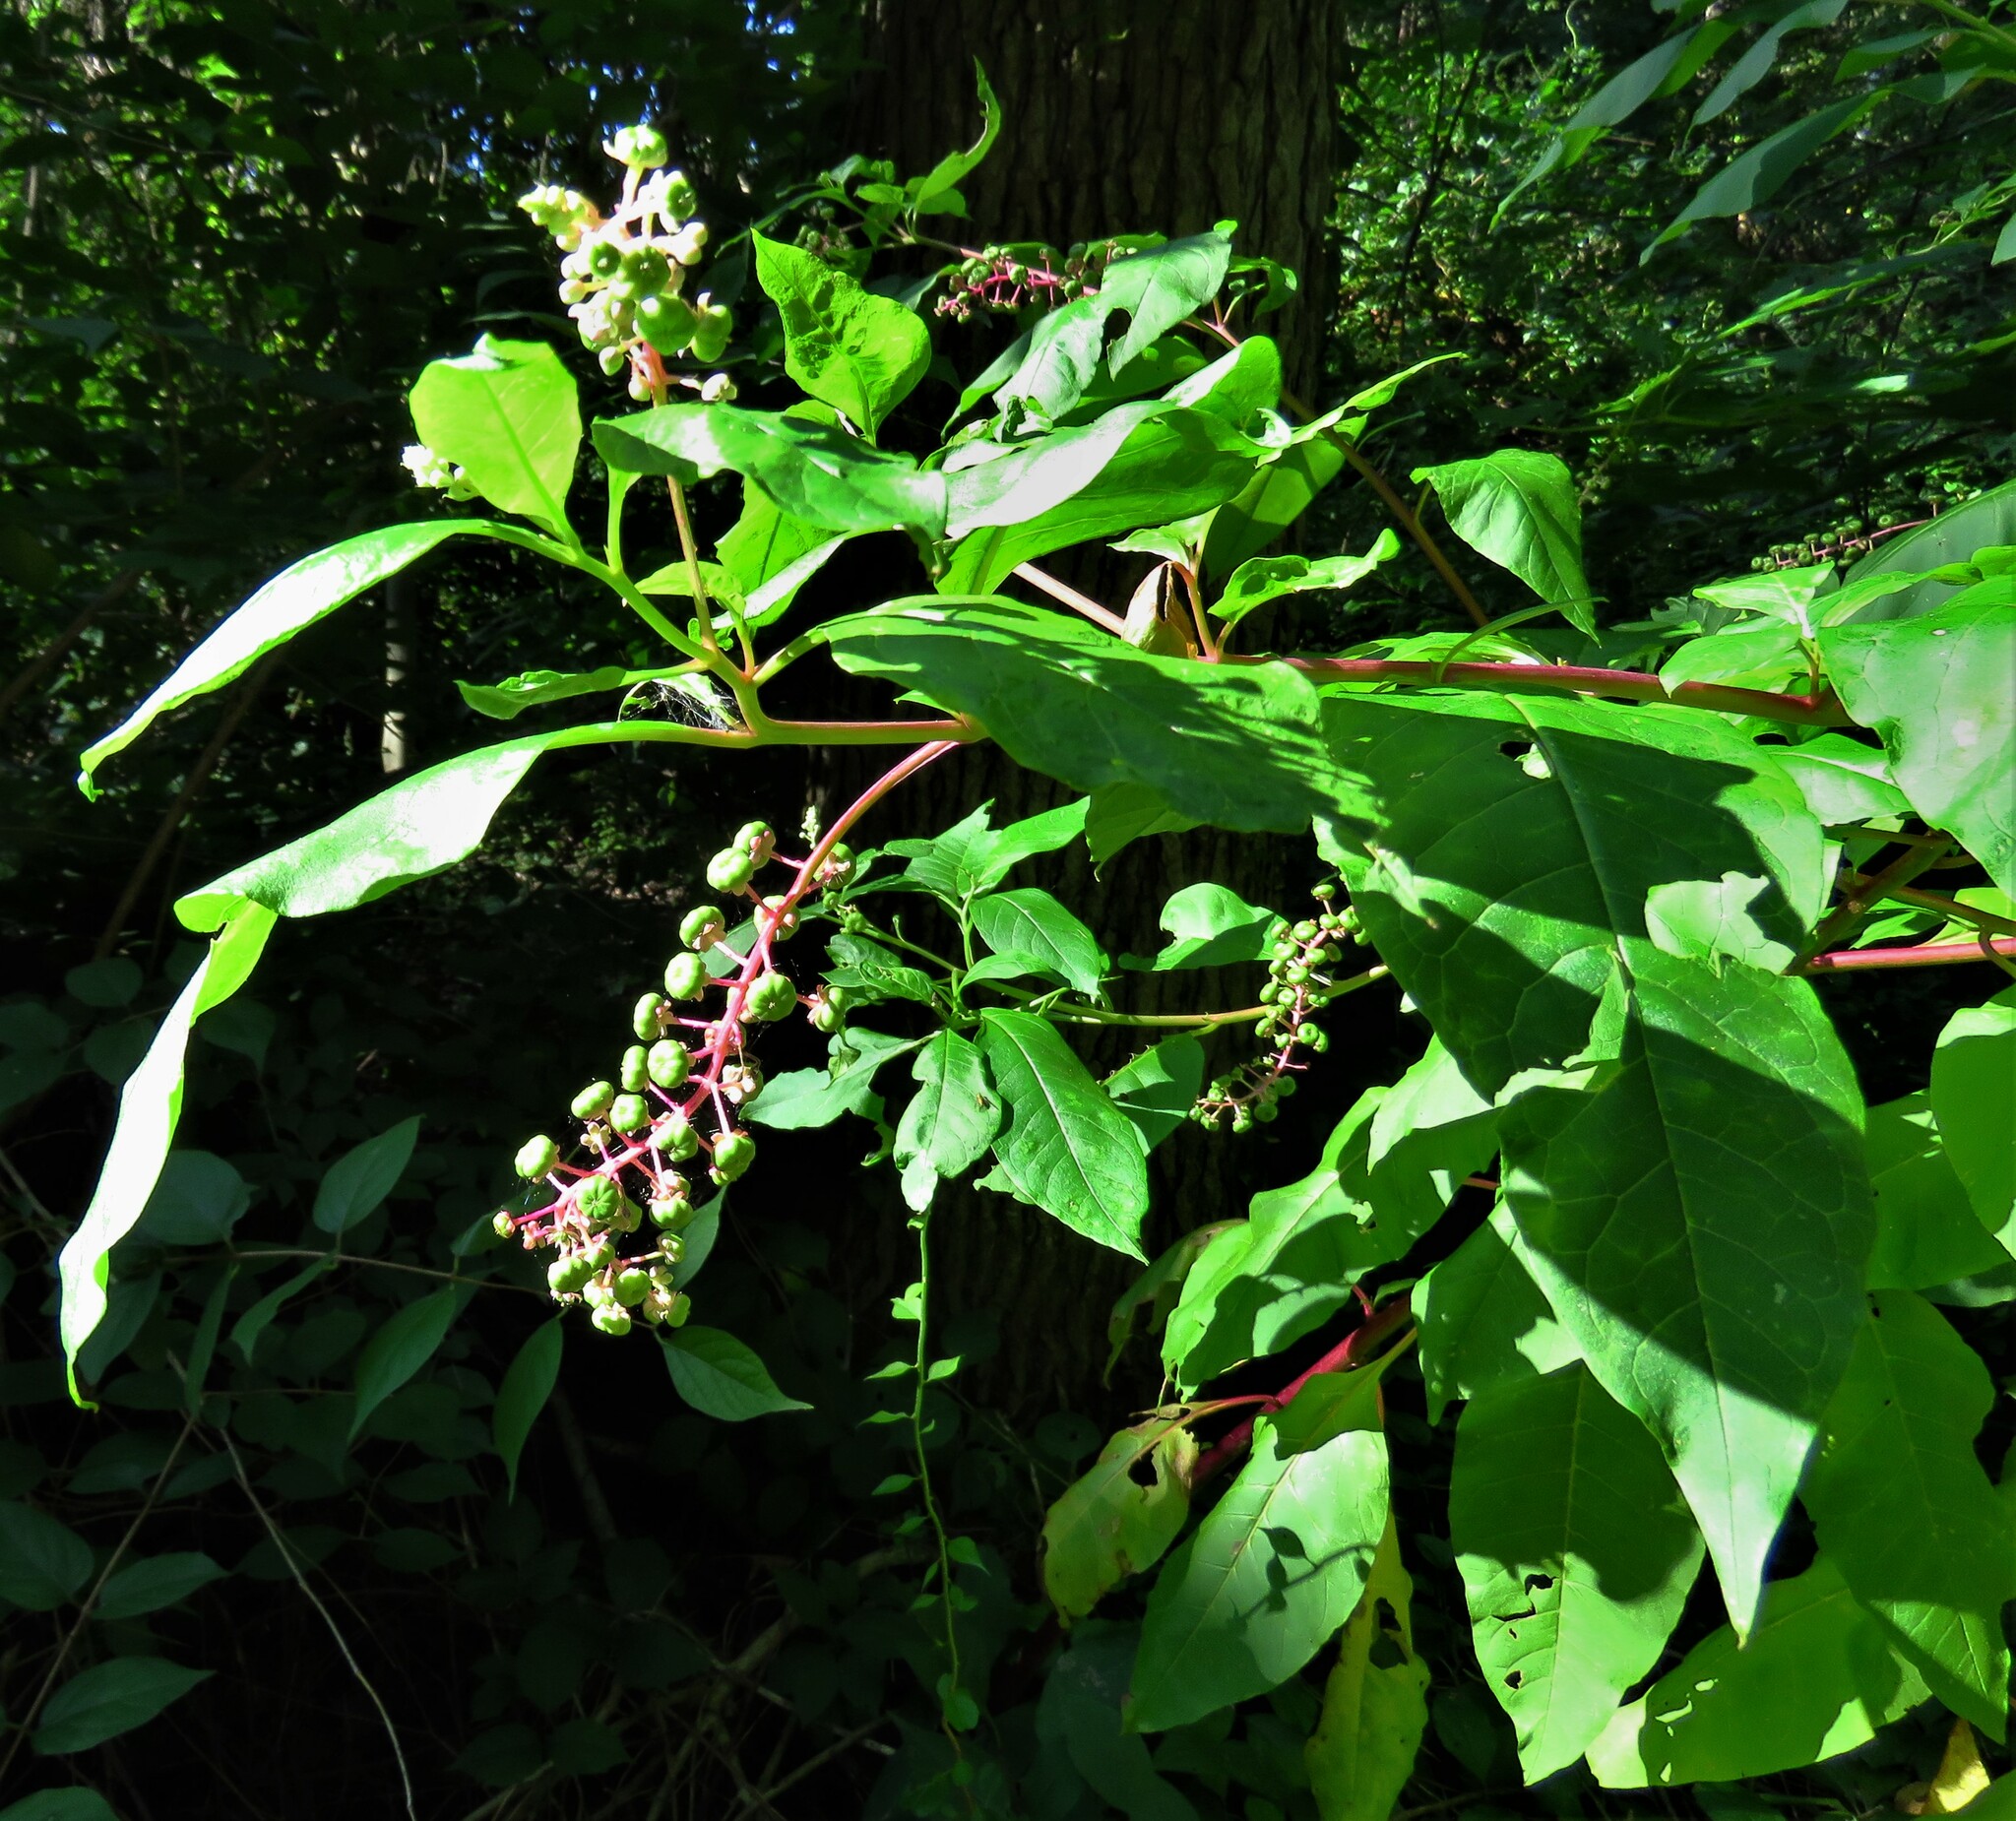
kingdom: Plantae
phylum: Tracheophyta
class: Magnoliopsida
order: Caryophyllales
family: Phytolaccaceae
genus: Phytolacca
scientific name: Phytolacca americana
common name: American pokeweed
